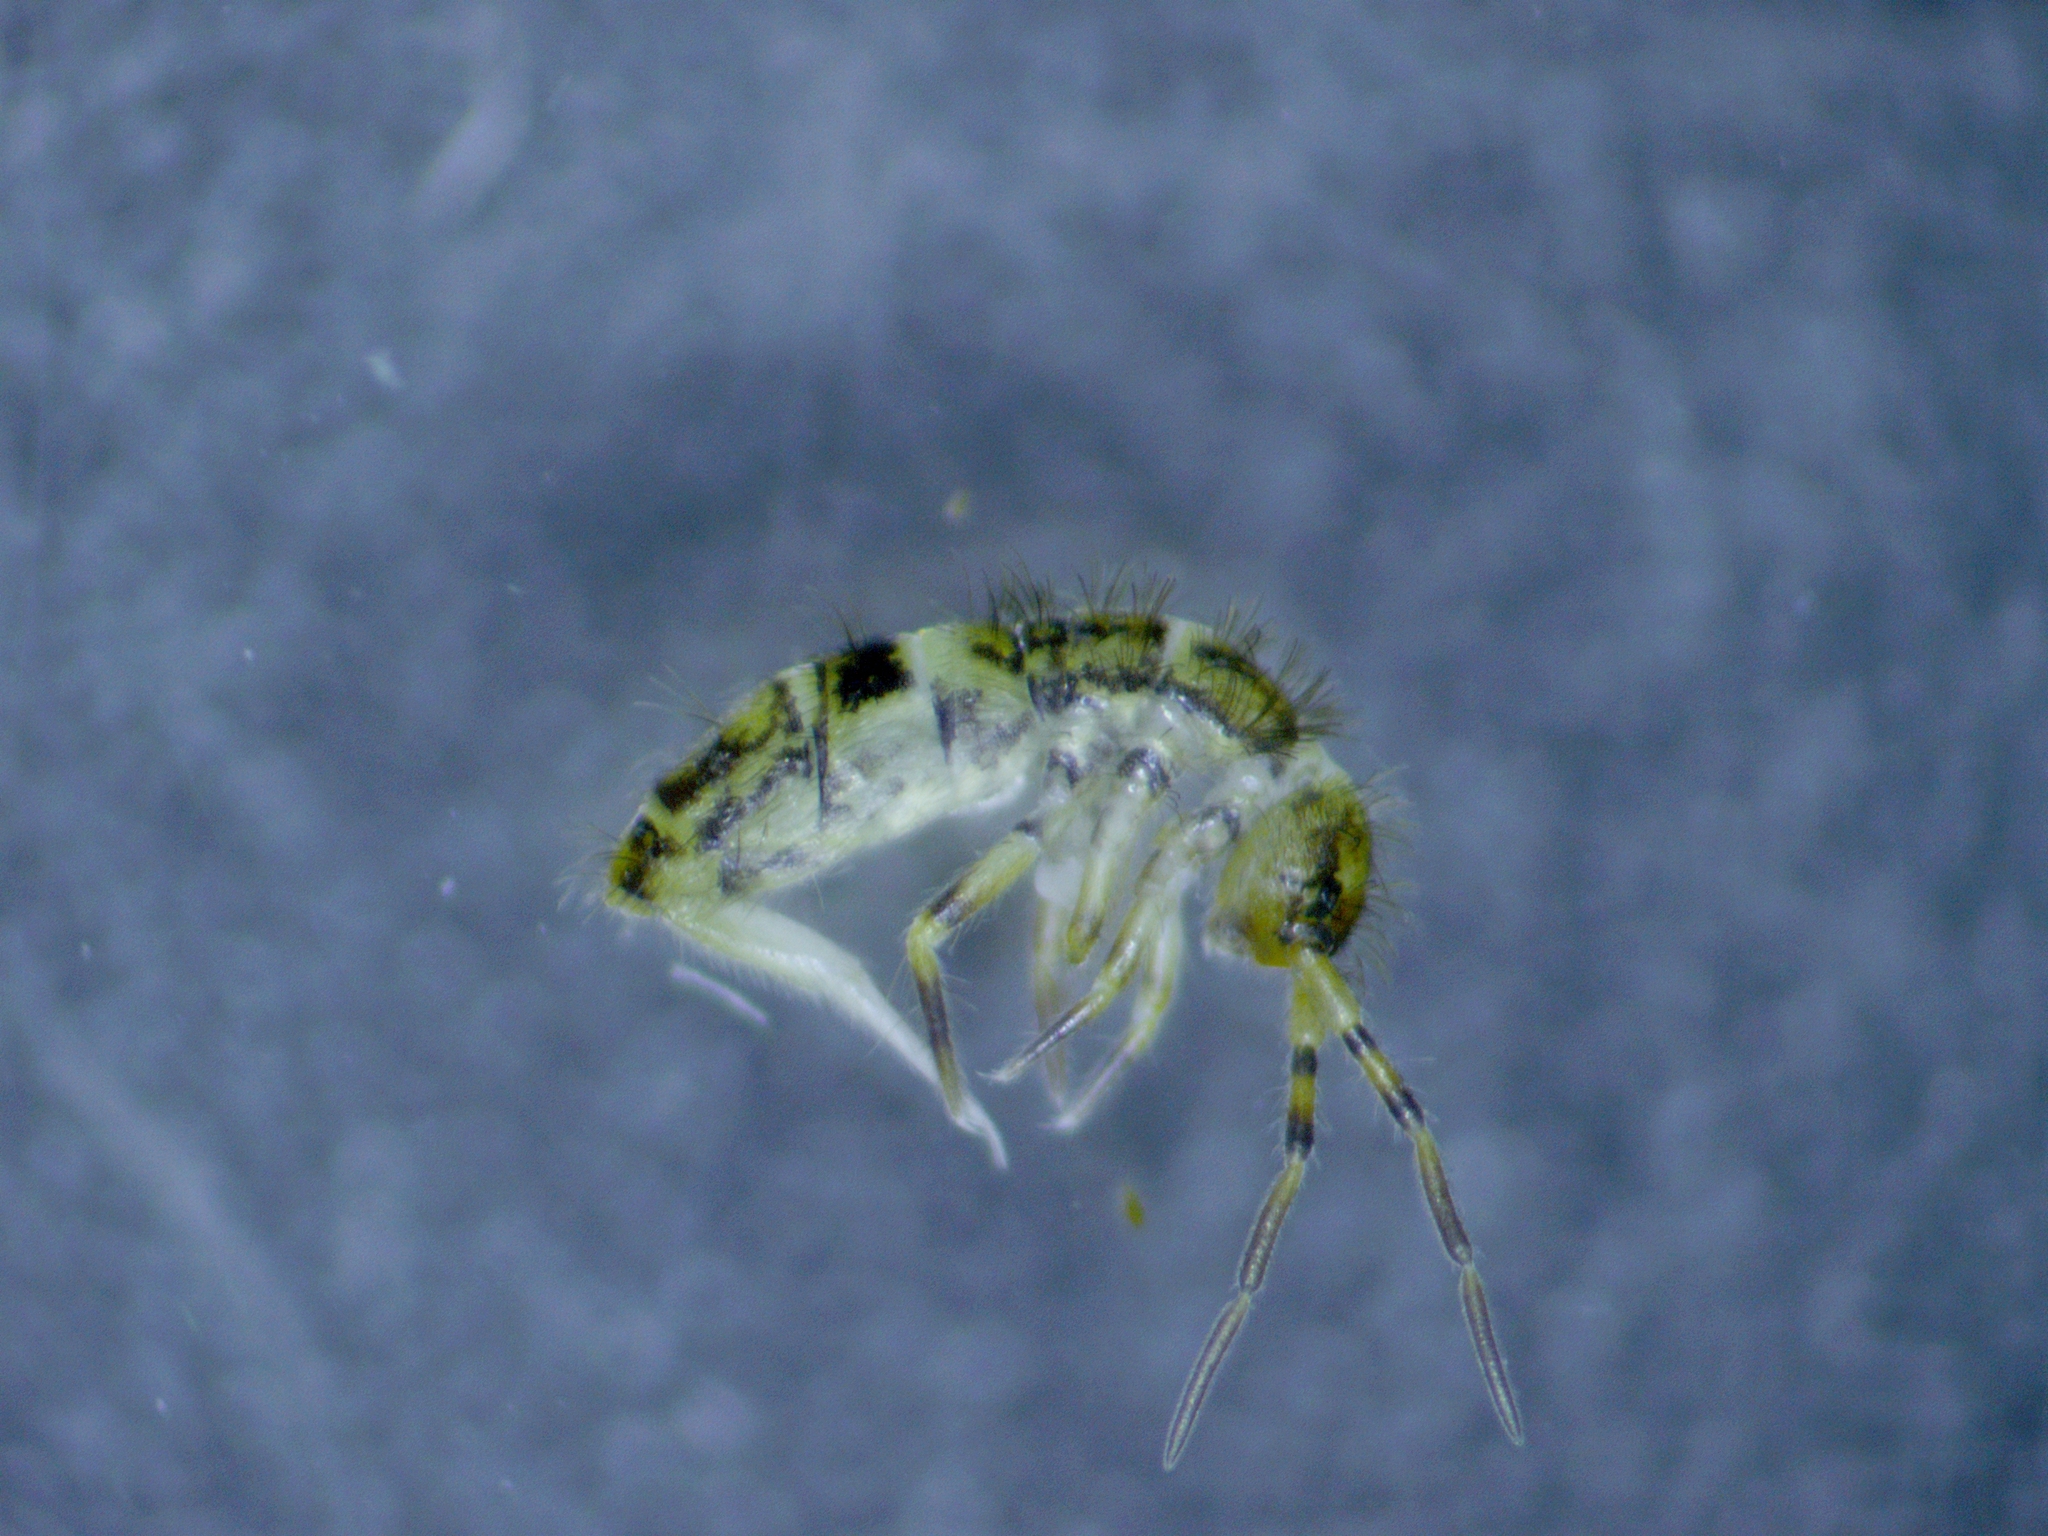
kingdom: Animalia
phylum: Arthropoda
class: Collembola
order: Entomobryomorpha
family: Orchesellidae
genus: Orchesella
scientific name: Orchesella cincta
